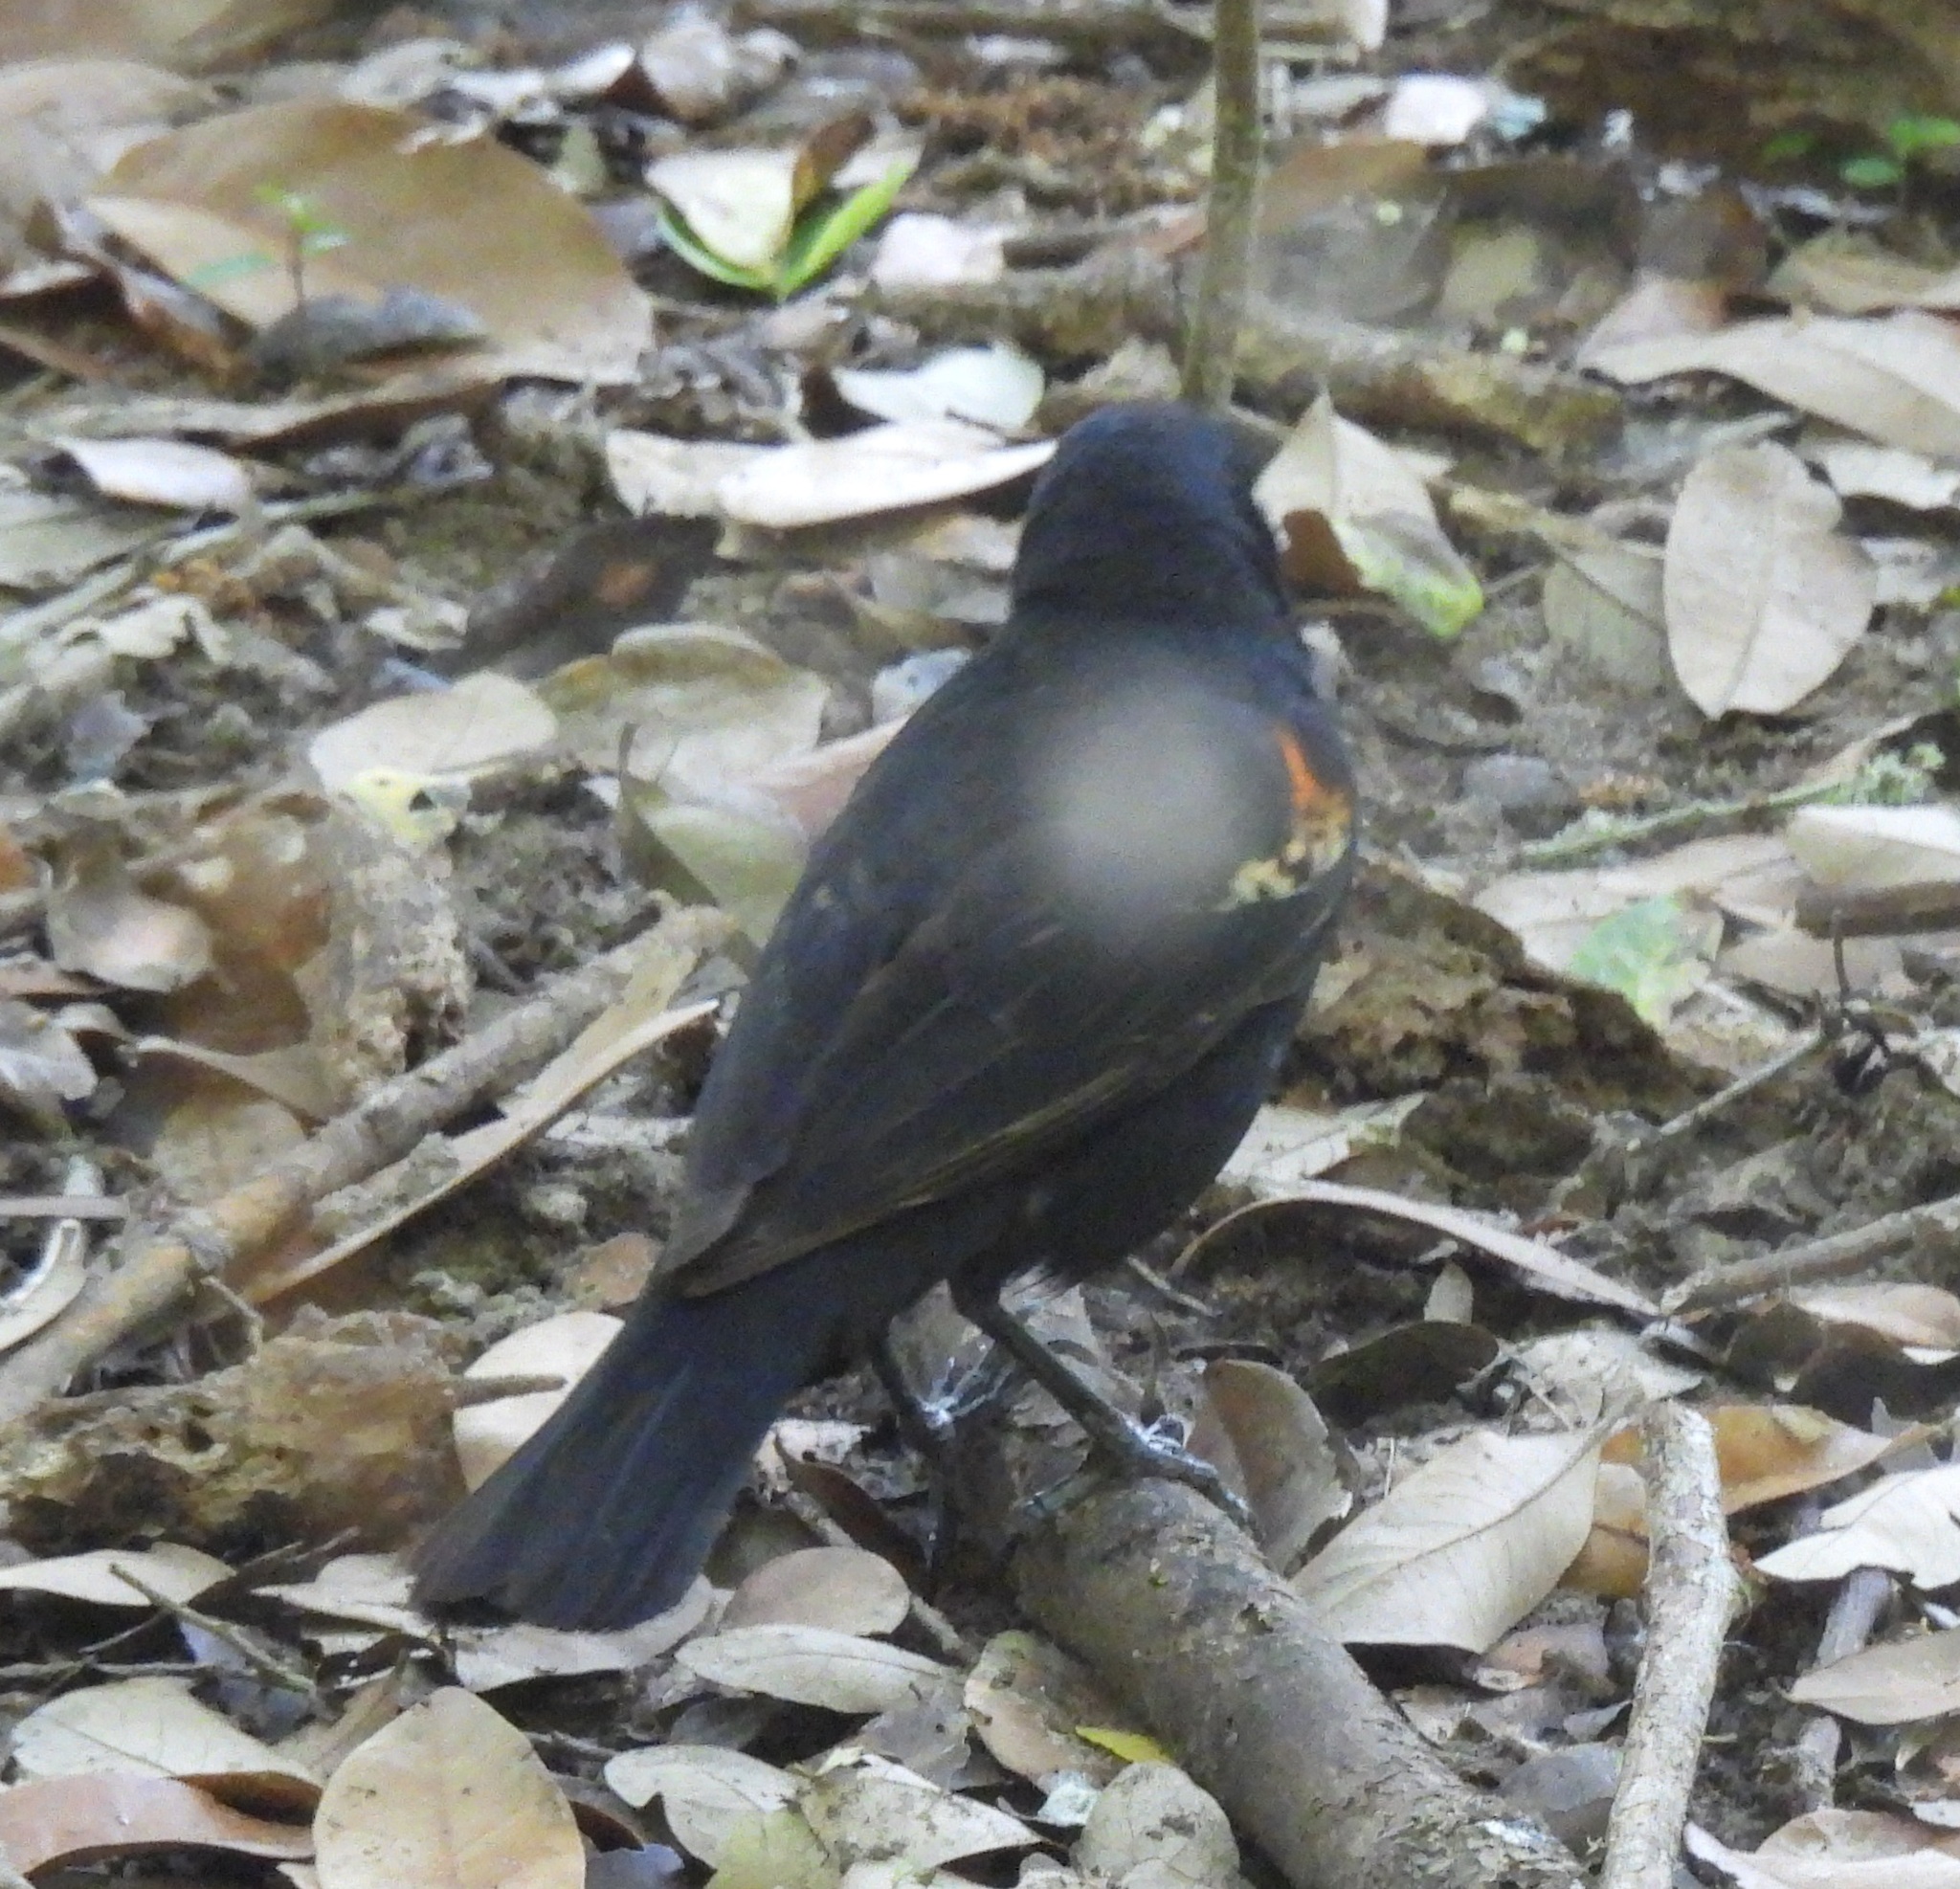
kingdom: Animalia
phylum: Chordata
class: Aves
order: Passeriformes
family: Icteridae
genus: Agelaius
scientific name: Agelaius phoeniceus
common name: Red-winged blackbird
